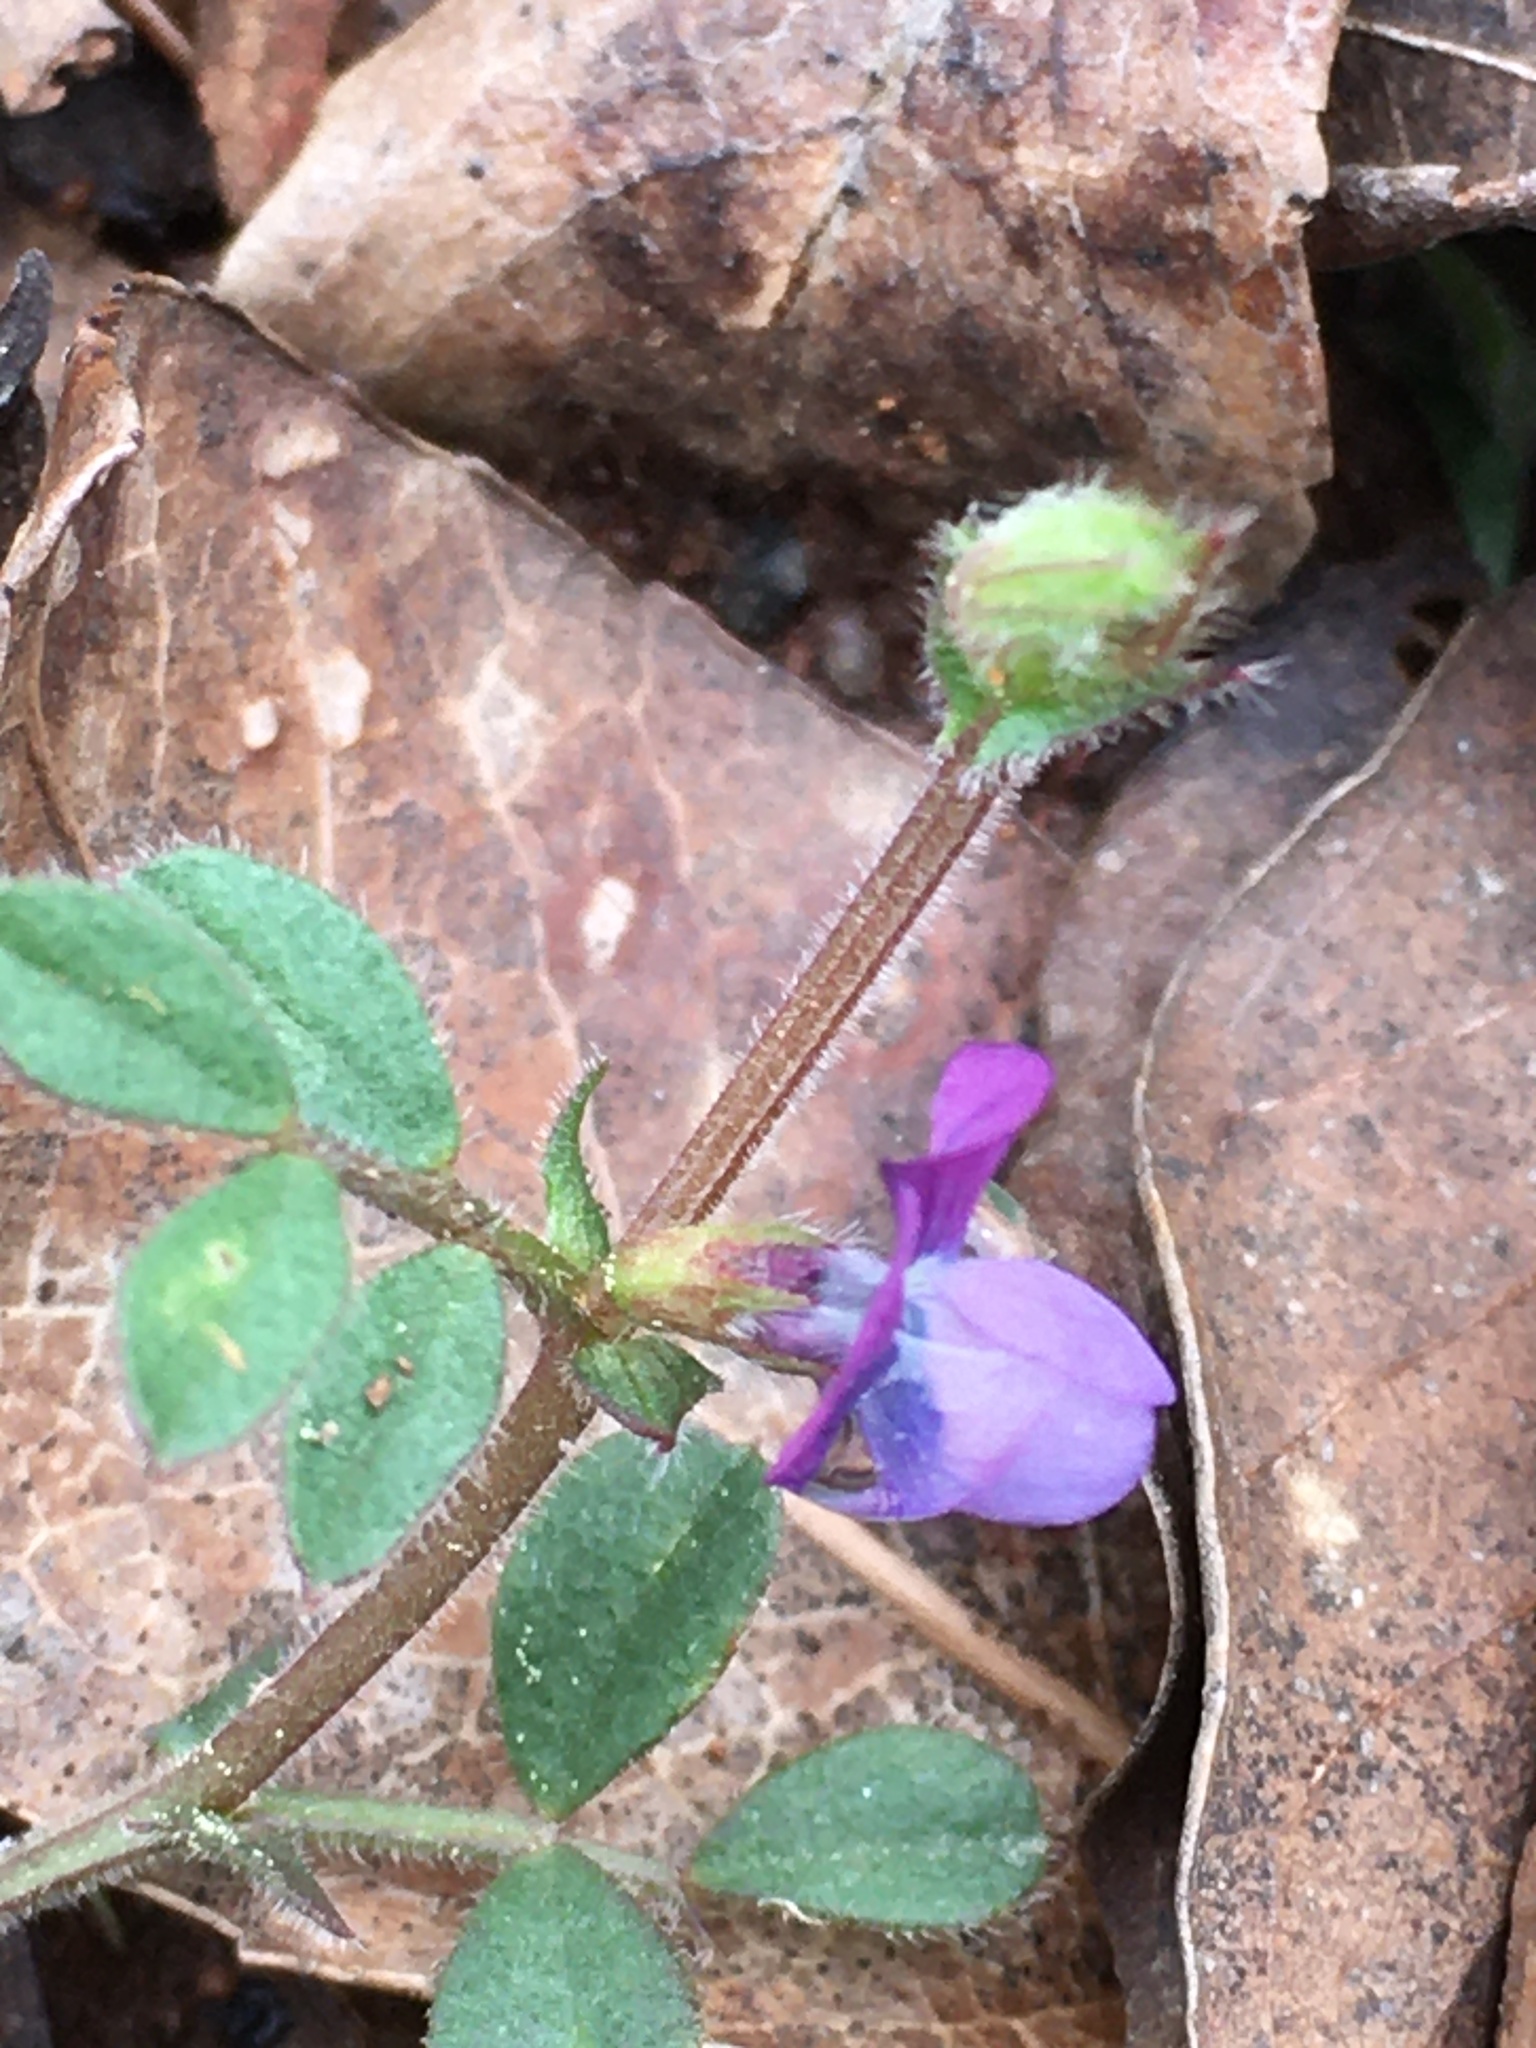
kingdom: Plantae
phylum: Tracheophyta
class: Magnoliopsida
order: Fabales
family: Fabaceae
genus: Vicia
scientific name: Vicia lathyroides
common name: Spring vetch
